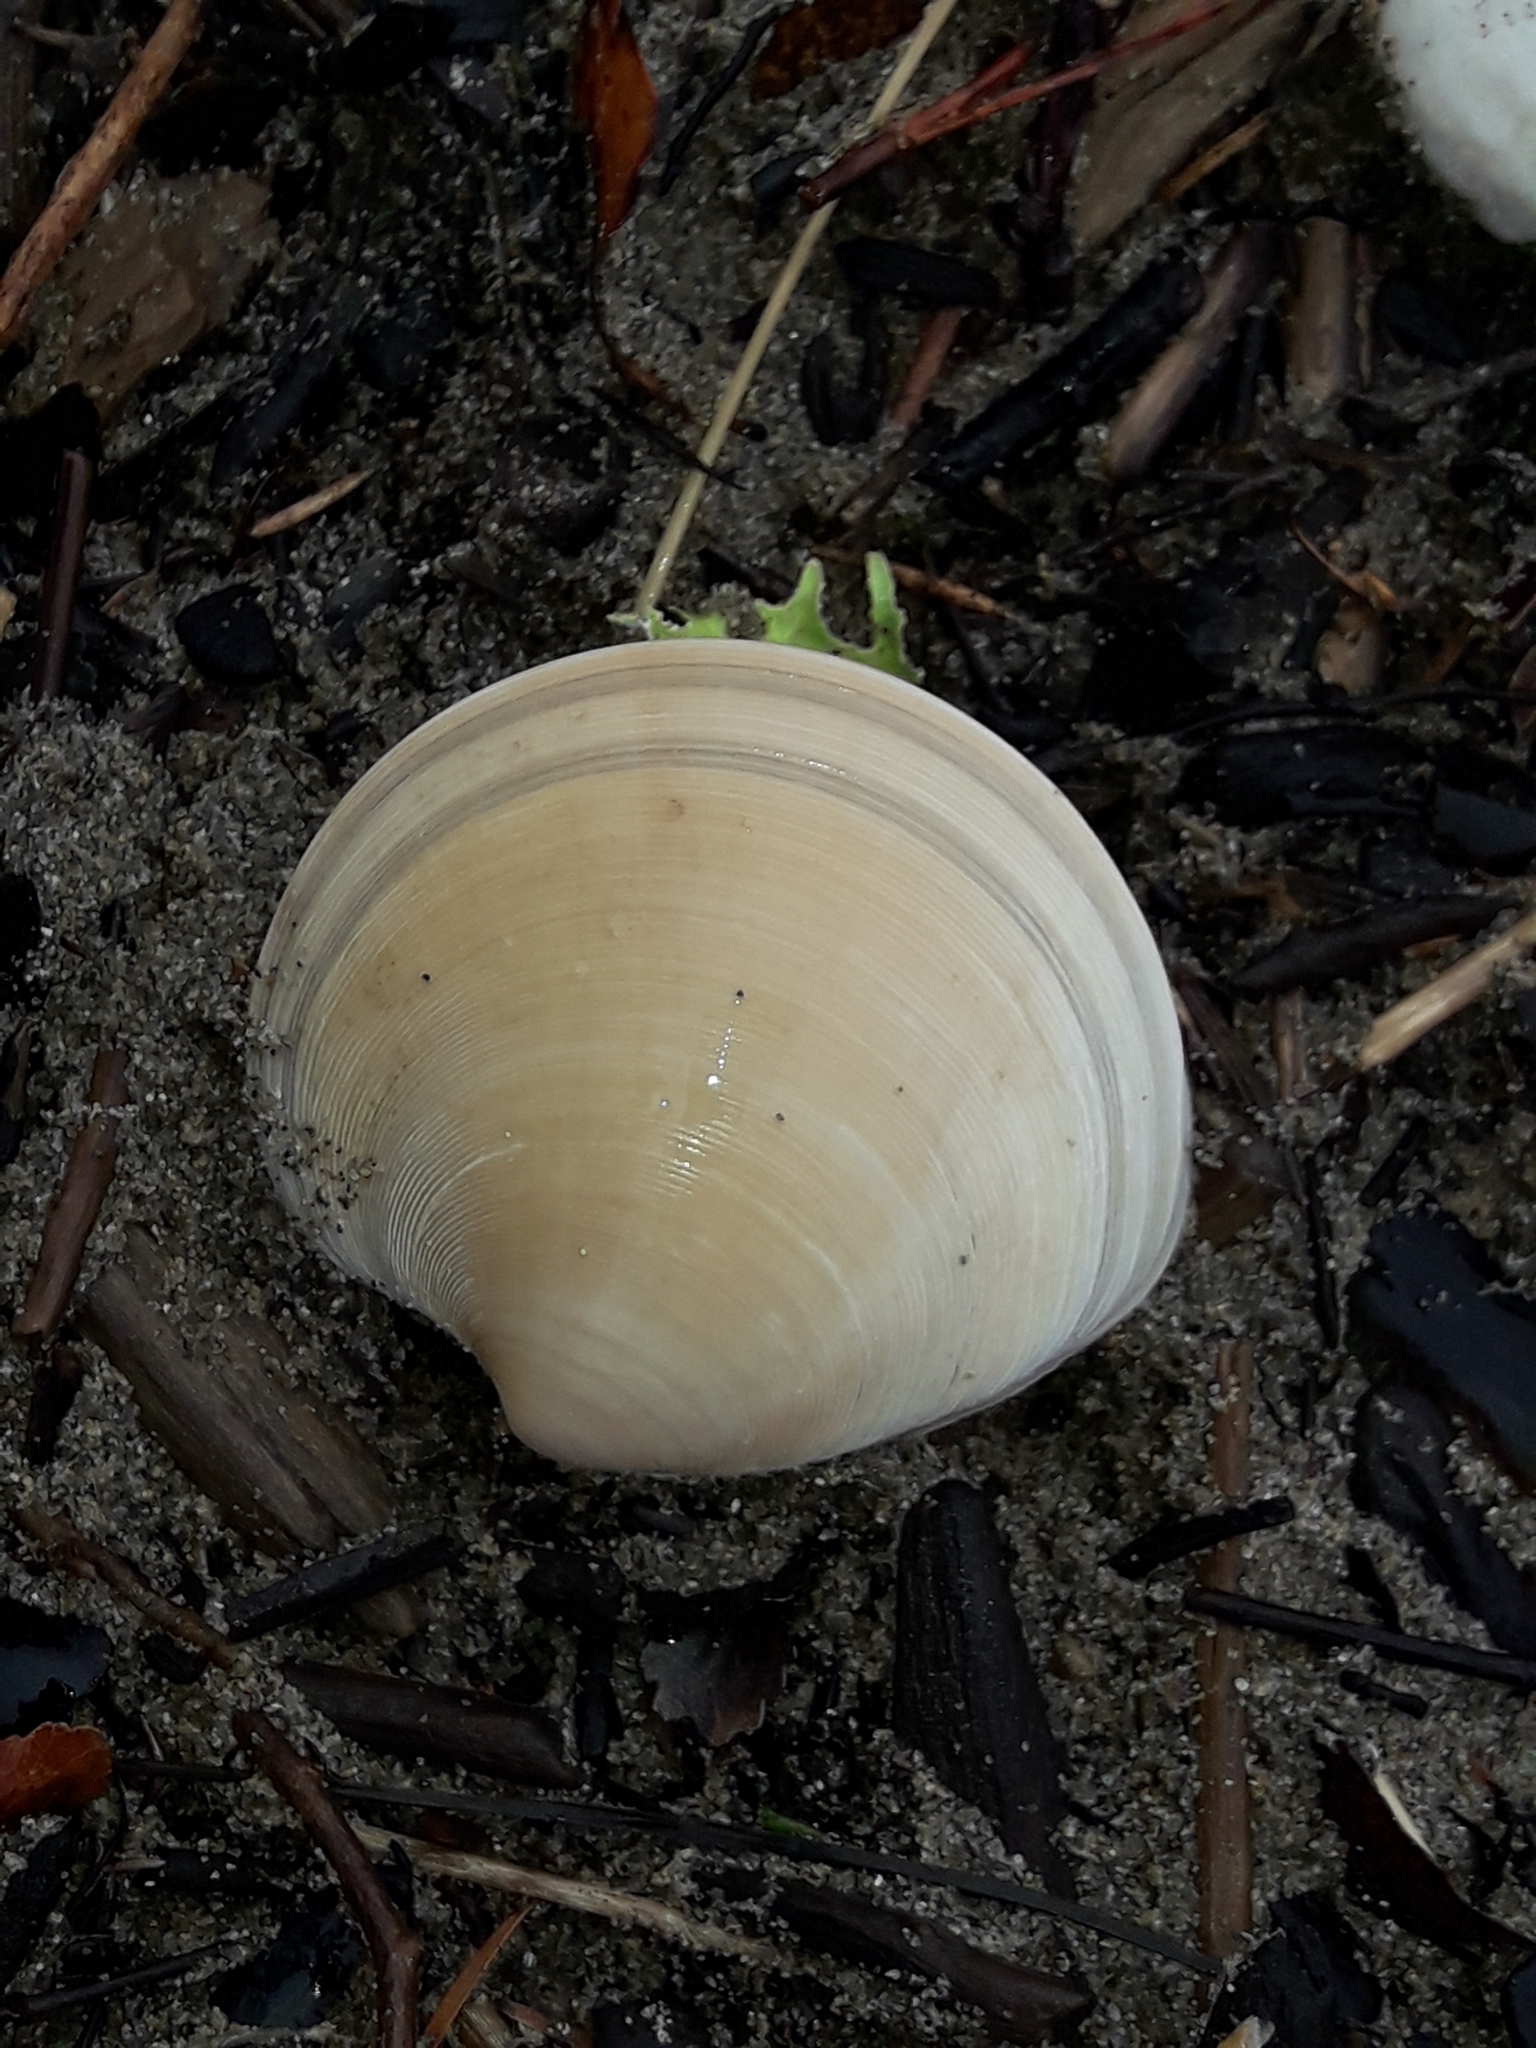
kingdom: Animalia
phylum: Mollusca
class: Bivalvia
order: Venerida
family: Veneridae
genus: Dosinia
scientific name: Dosinia subrosea
